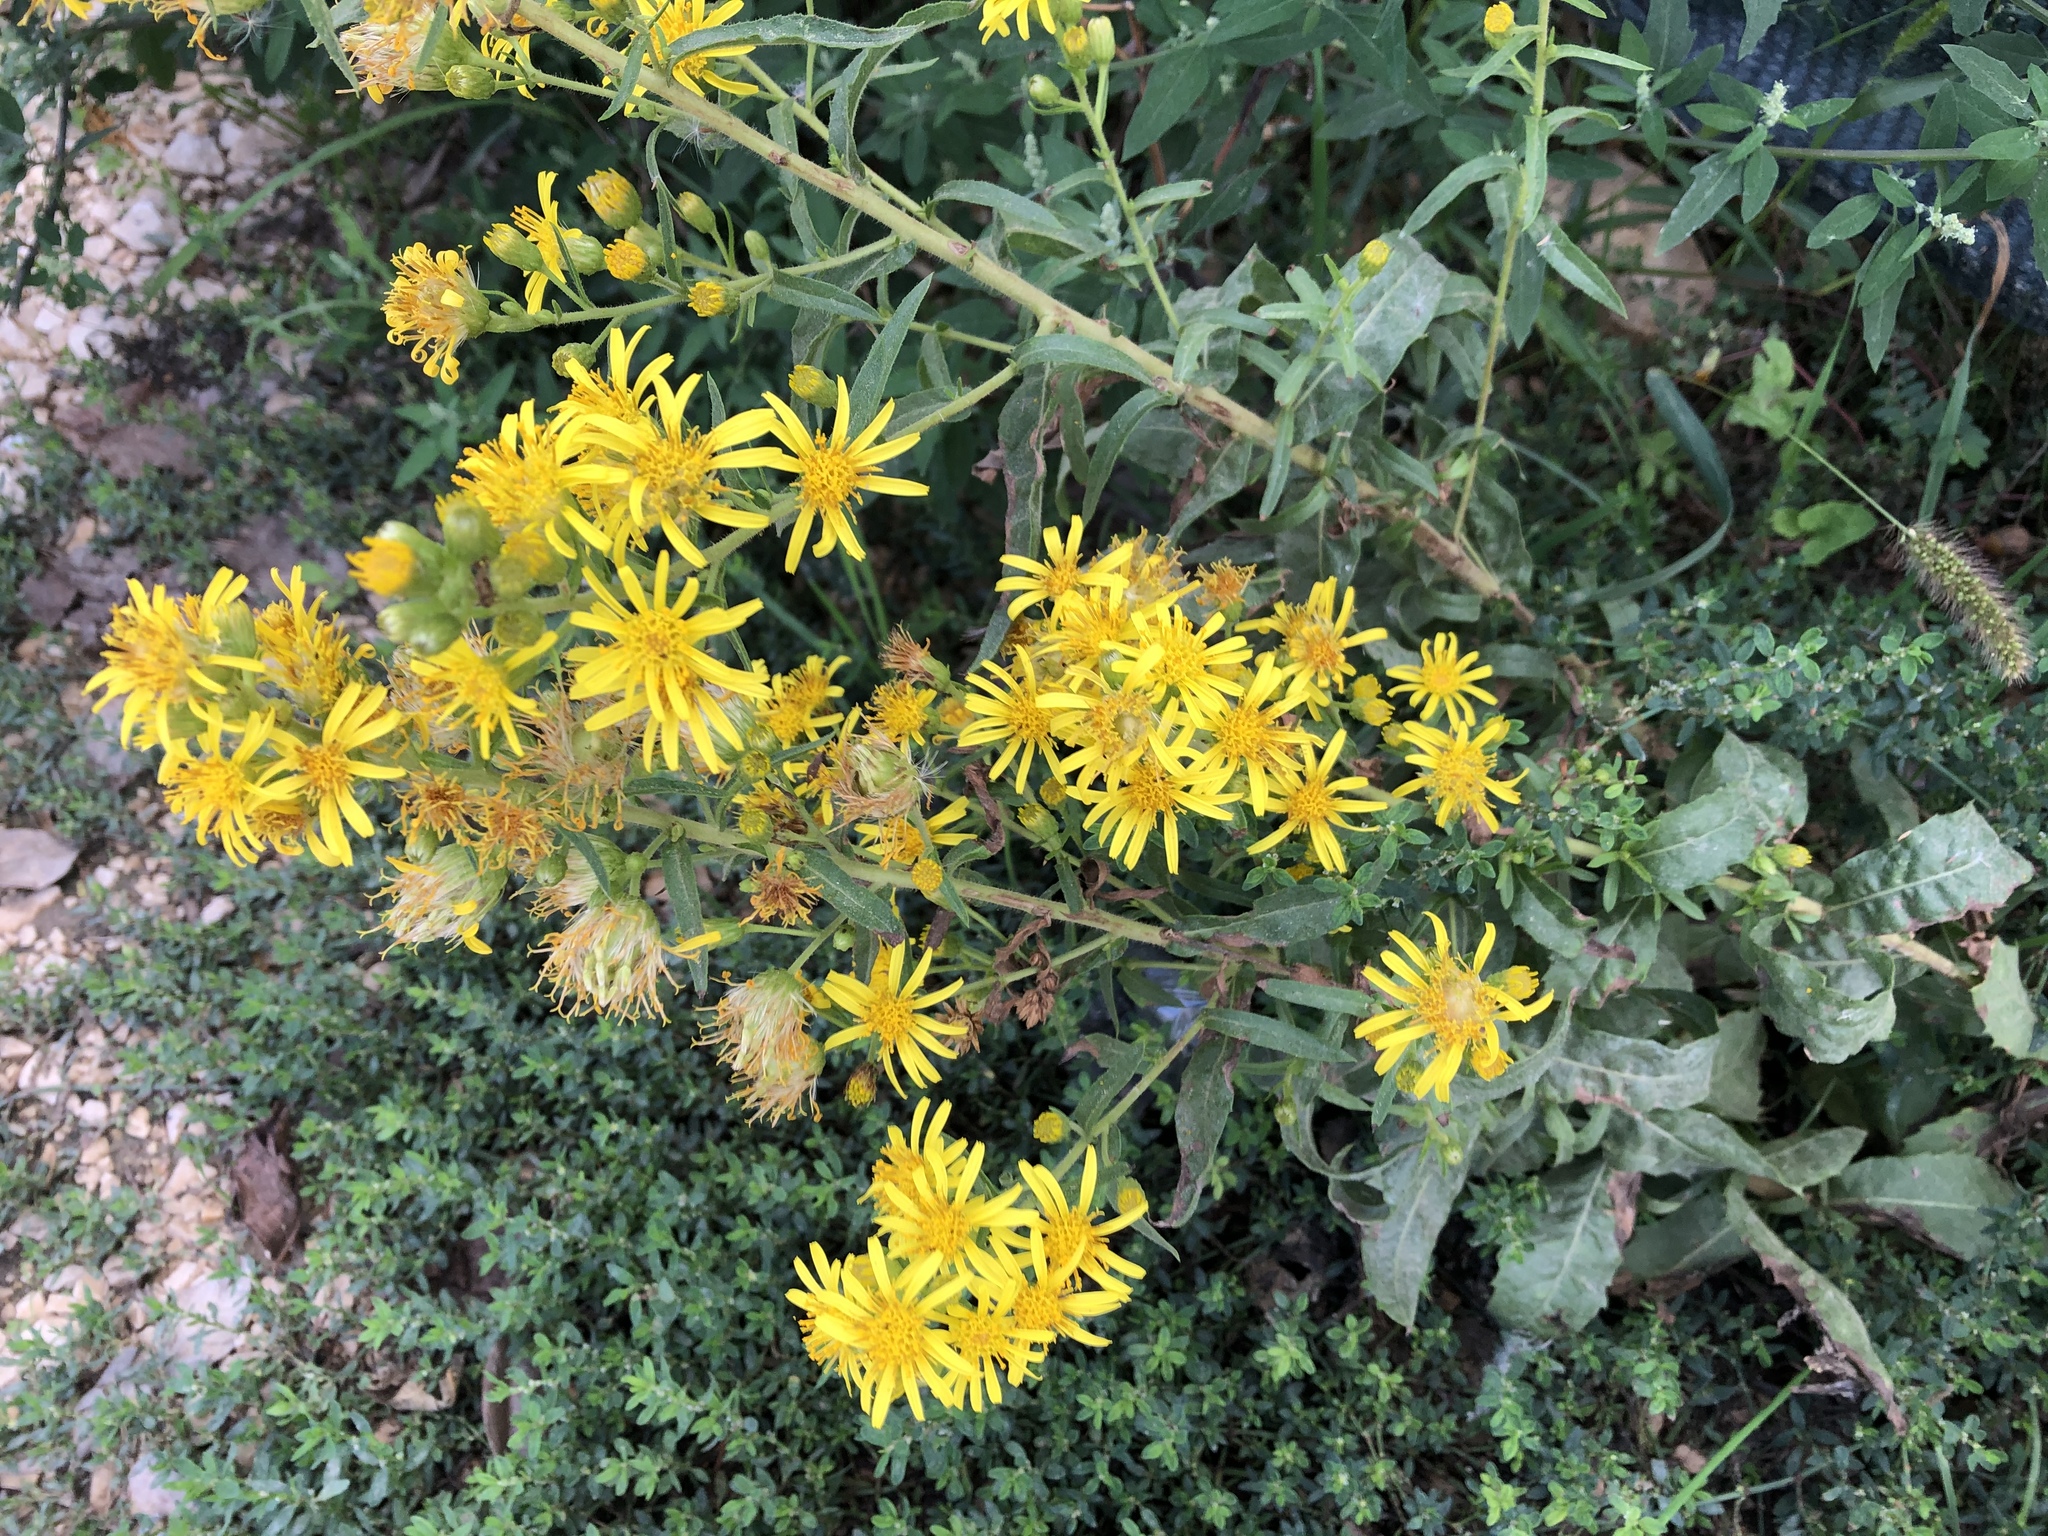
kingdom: Plantae
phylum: Tracheophyta
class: Magnoliopsida
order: Asterales
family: Asteraceae
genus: Dittrichia
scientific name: Dittrichia viscosa
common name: Woody fleabane
